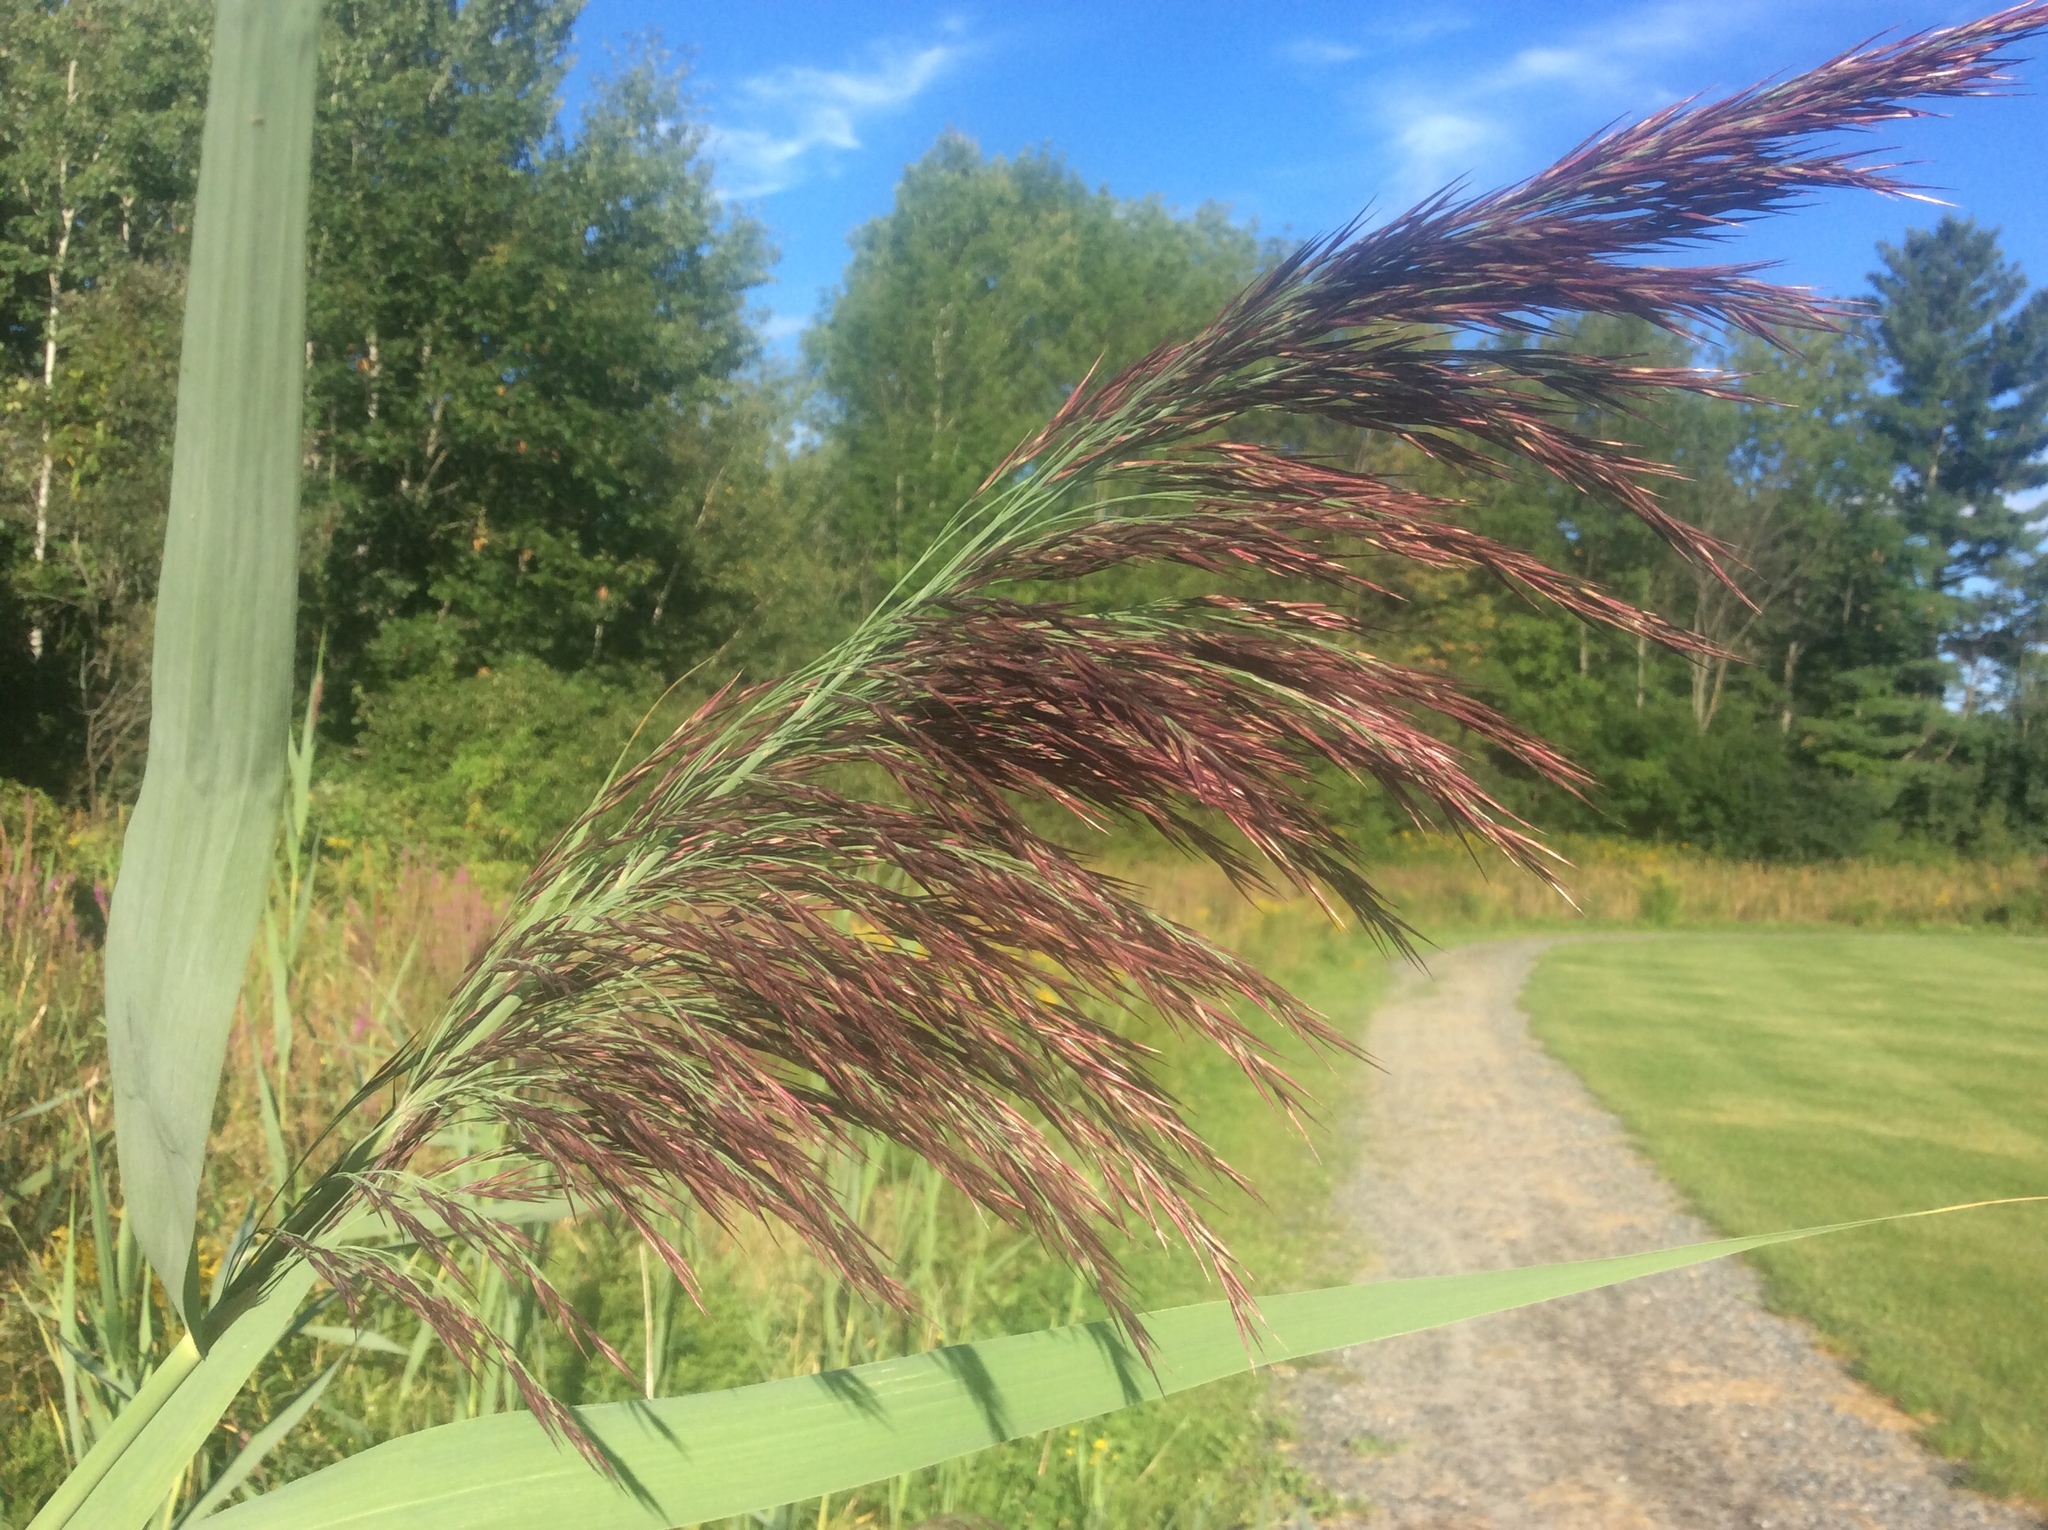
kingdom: Plantae
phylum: Tracheophyta
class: Liliopsida
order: Poales
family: Poaceae
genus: Phragmites
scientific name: Phragmites australis
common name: Common reed
